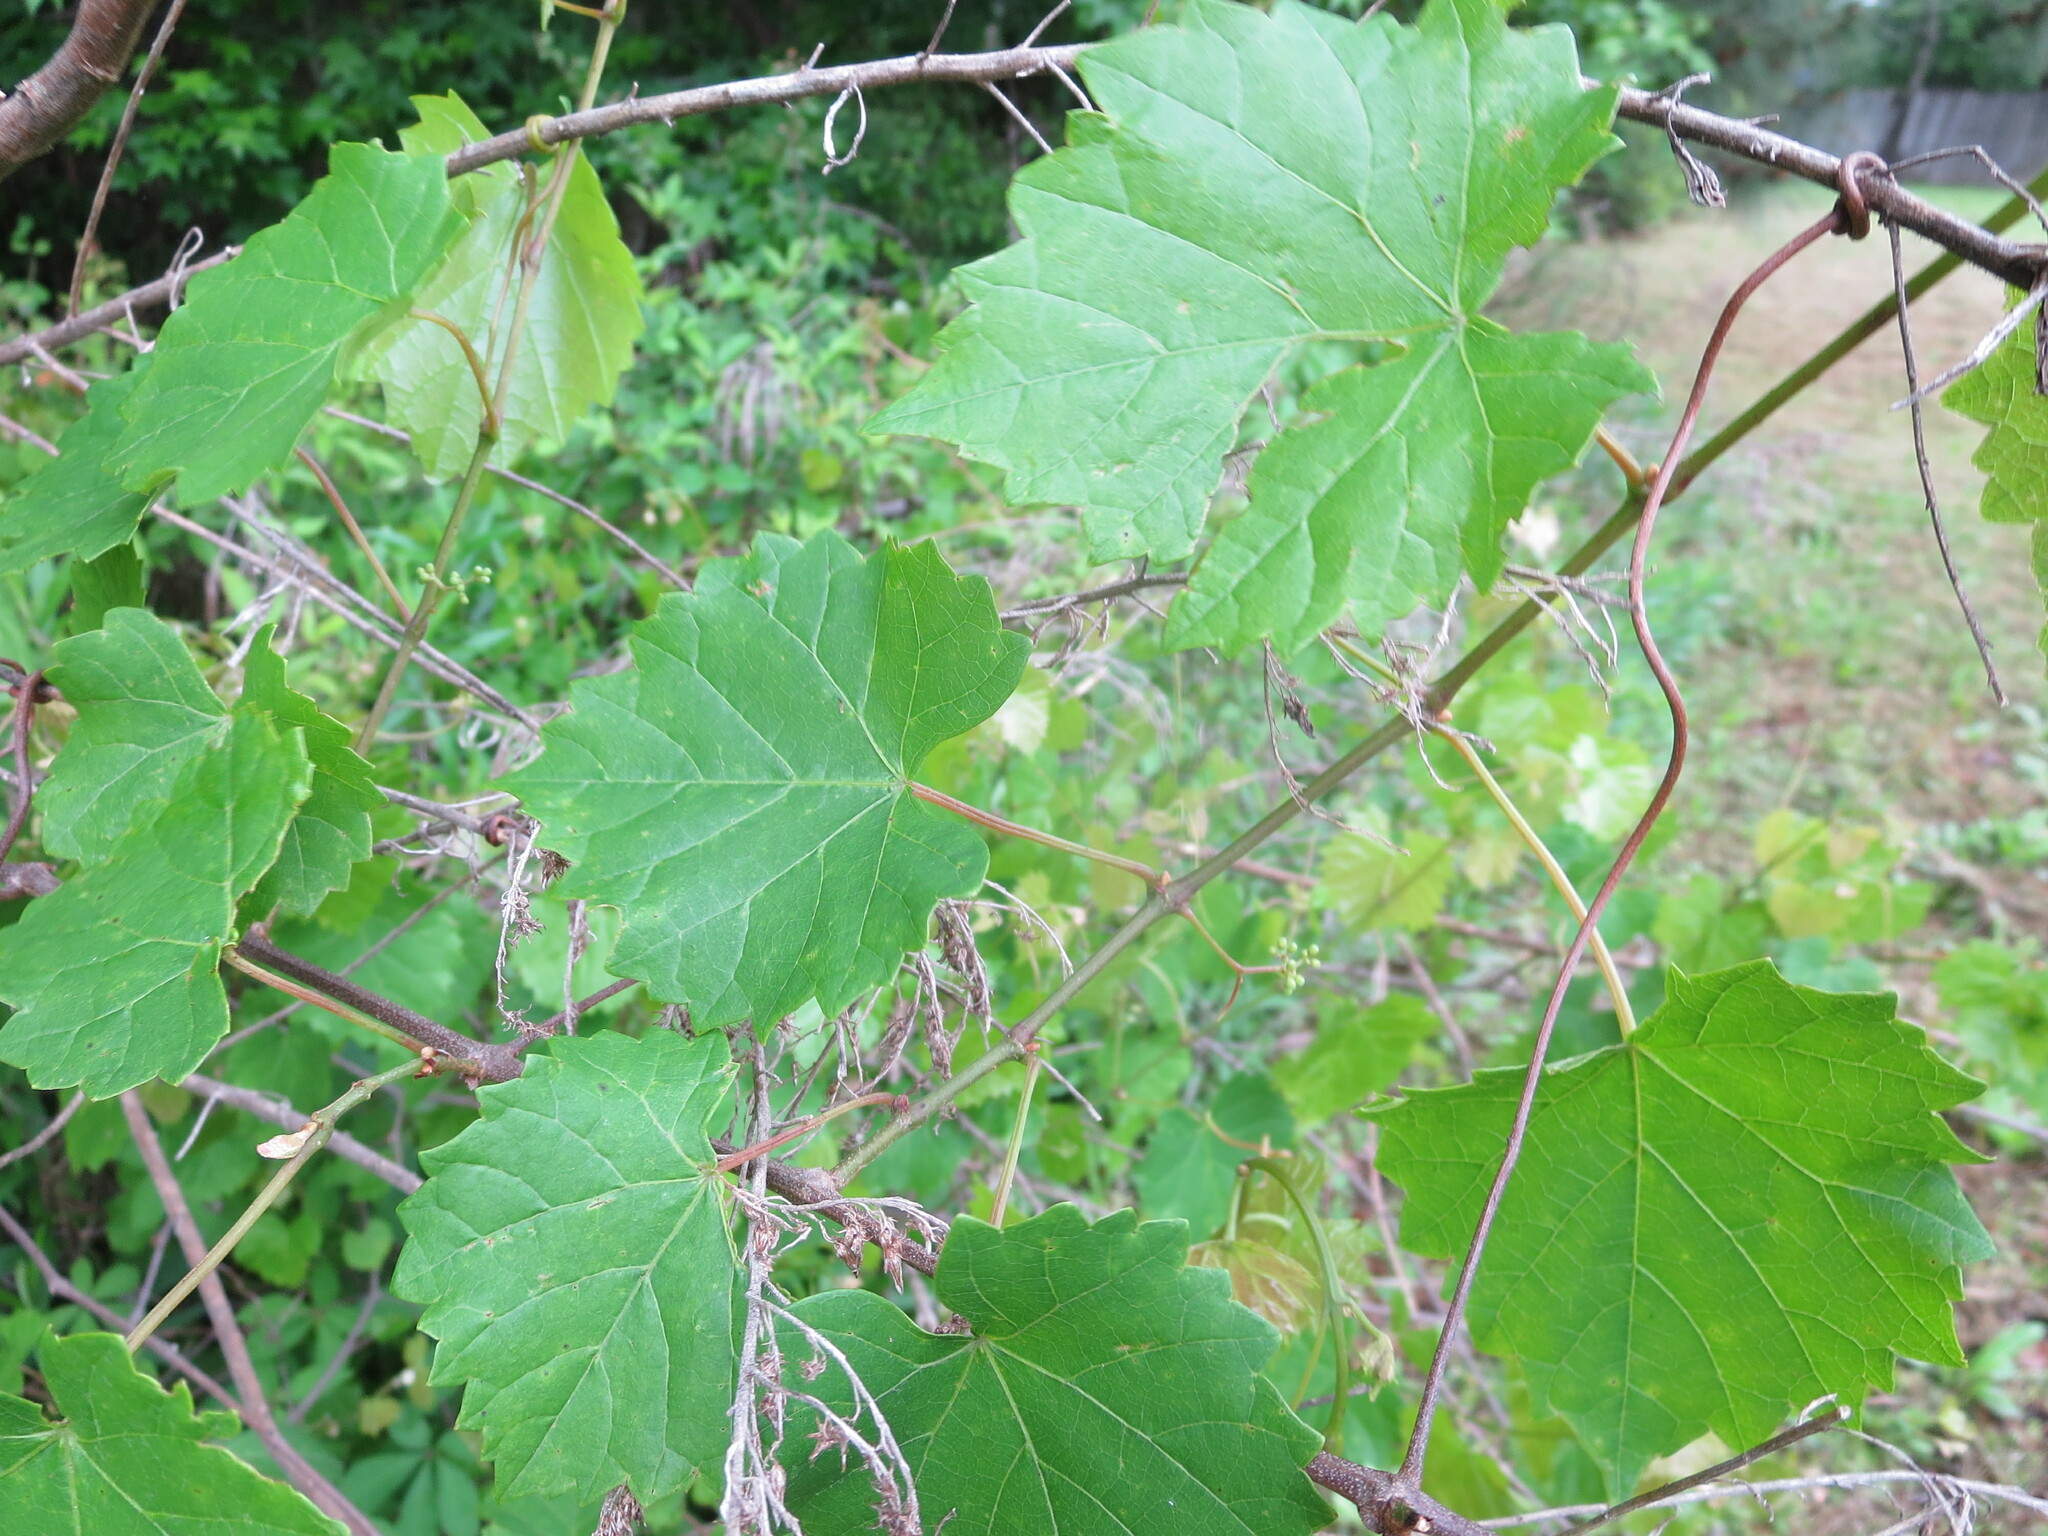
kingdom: Plantae
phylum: Tracheophyta
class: Magnoliopsida
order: Vitales
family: Vitaceae
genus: Vitis
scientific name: Vitis rotundifolia
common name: Muscadine grape
